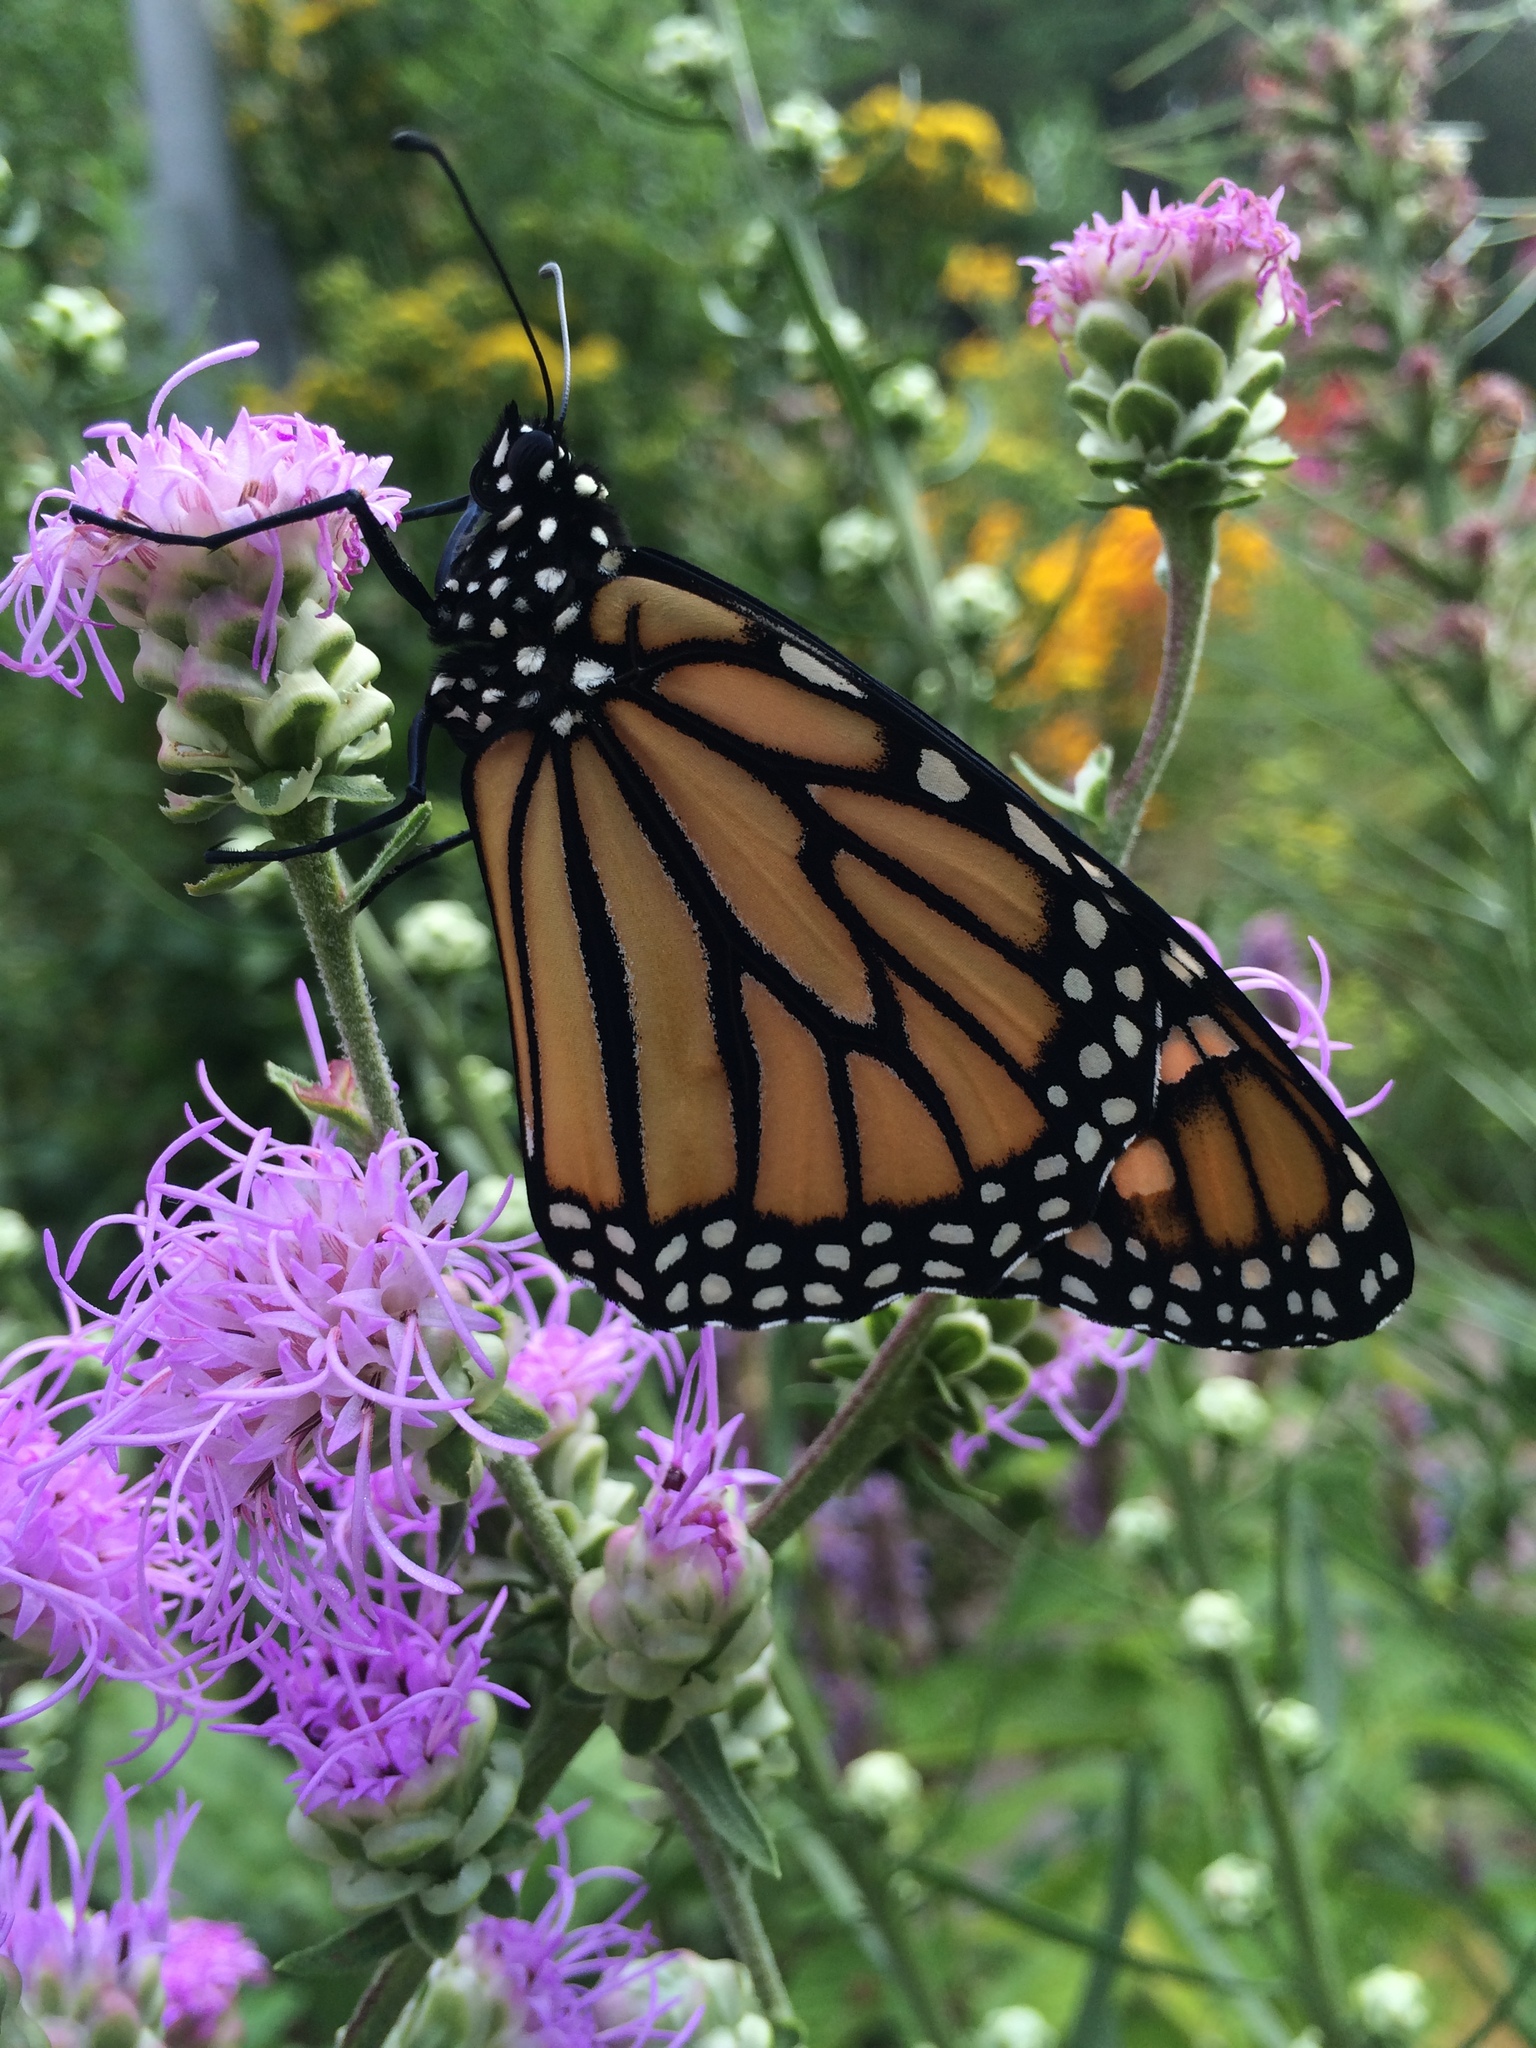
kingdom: Animalia
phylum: Arthropoda
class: Insecta
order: Lepidoptera
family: Nymphalidae
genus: Danaus
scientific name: Danaus plexippus
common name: Monarch
